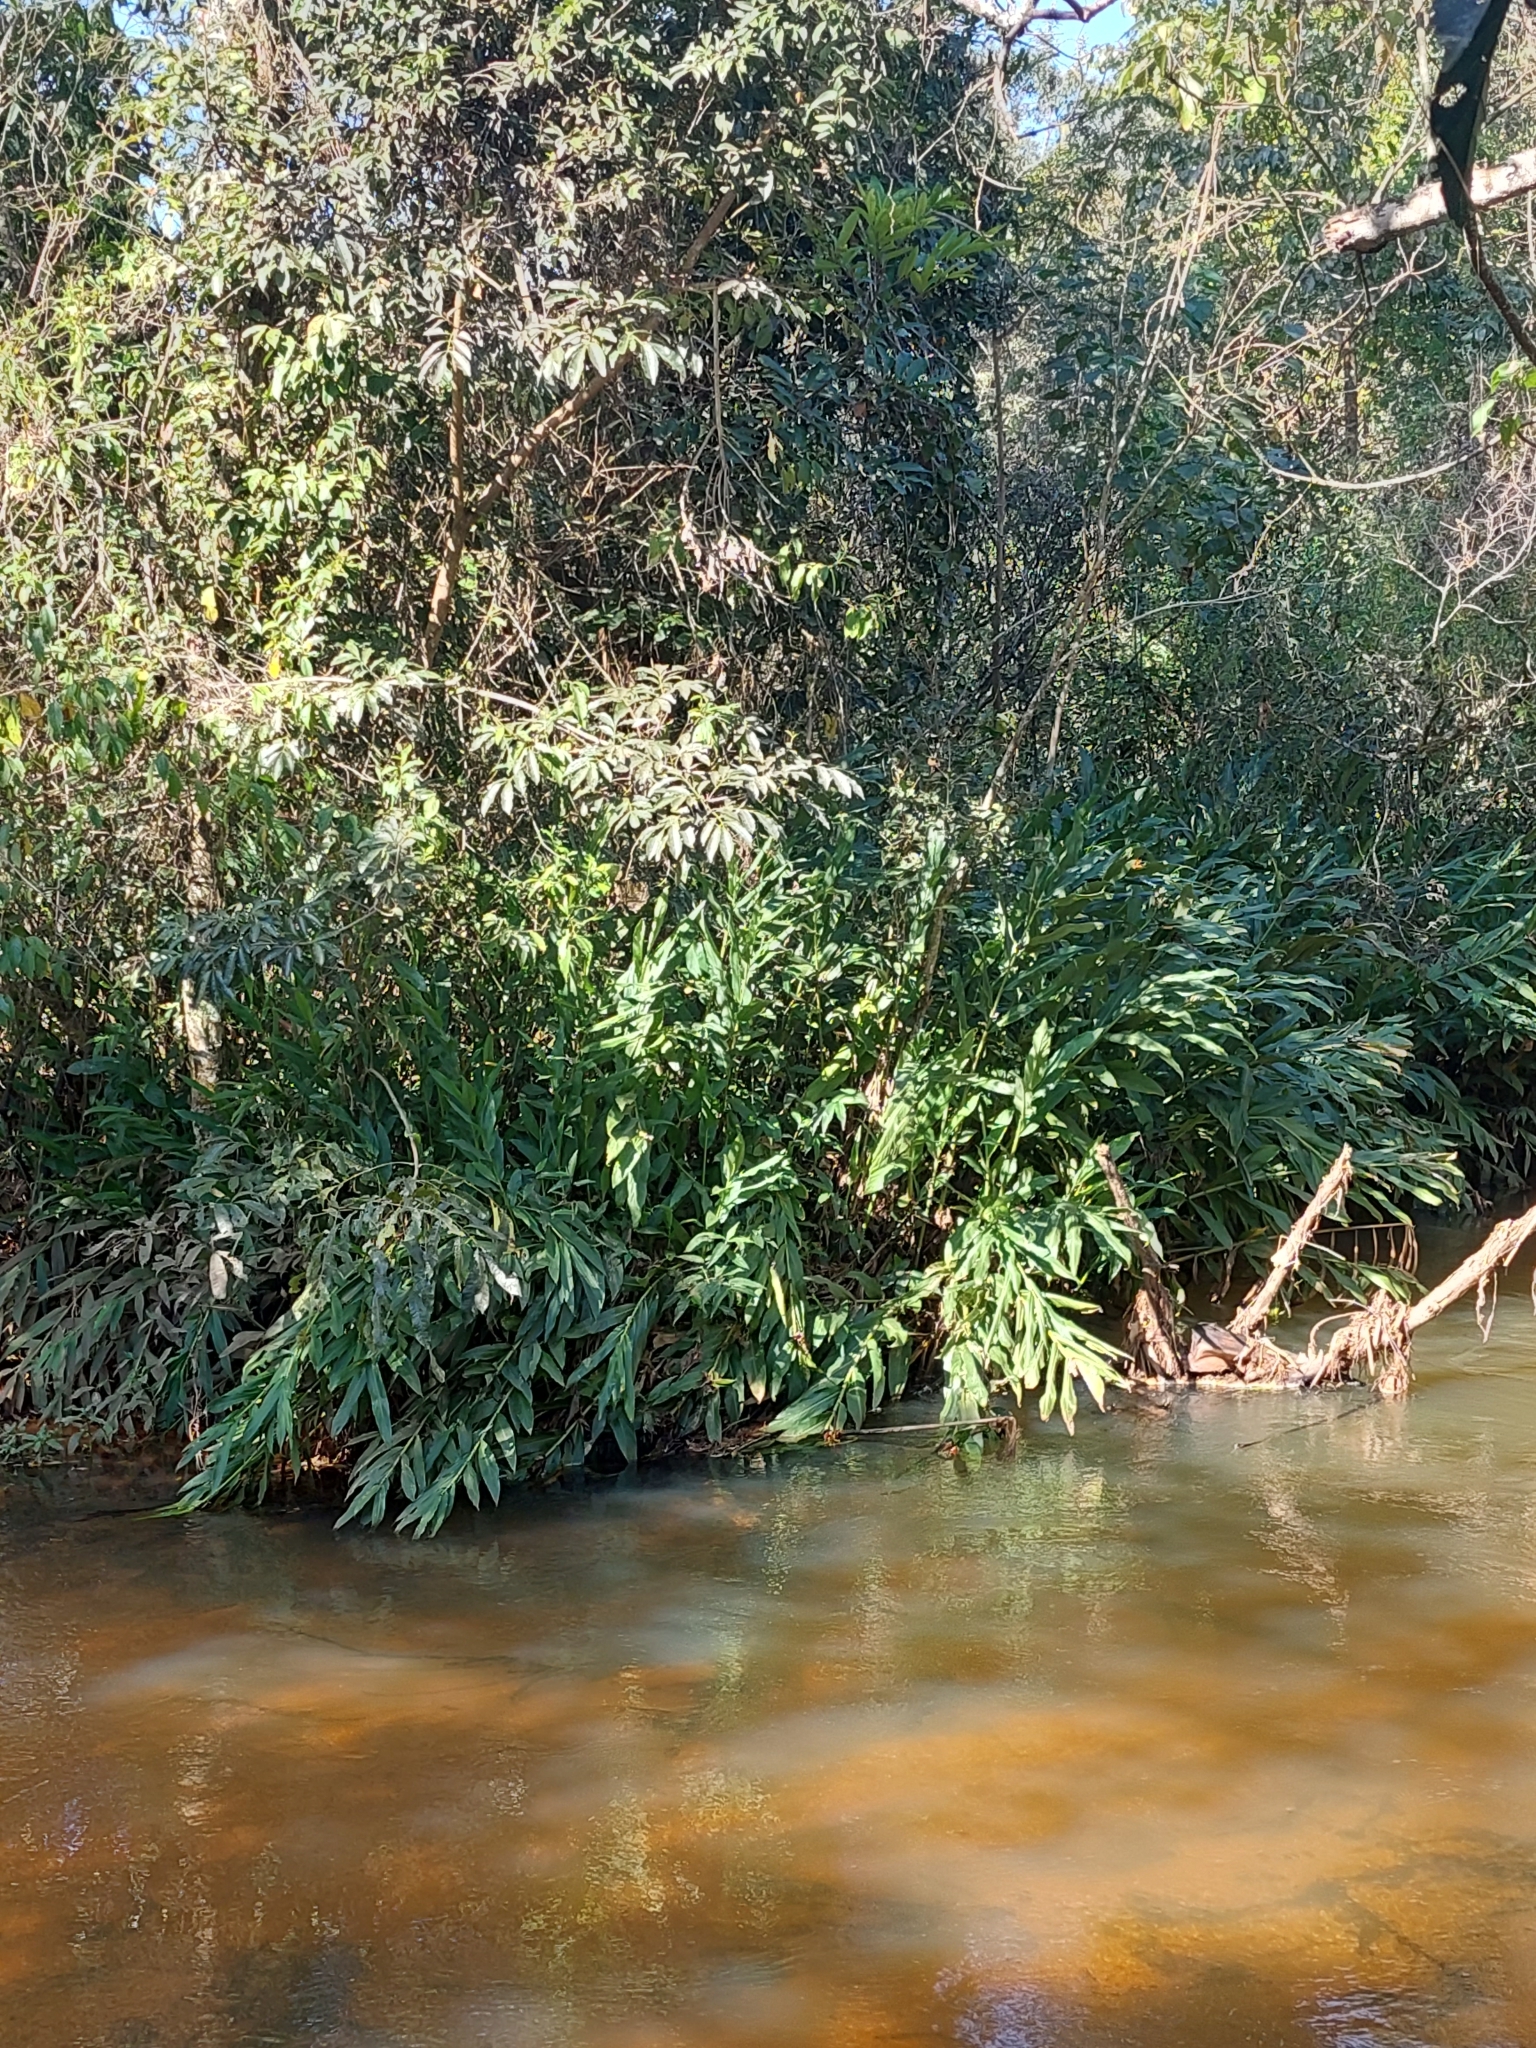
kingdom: Plantae
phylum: Tracheophyta
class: Liliopsida
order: Zingiberales
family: Zingiberaceae
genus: Hedychium
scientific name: Hedychium coronarium
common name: White garland-lily
